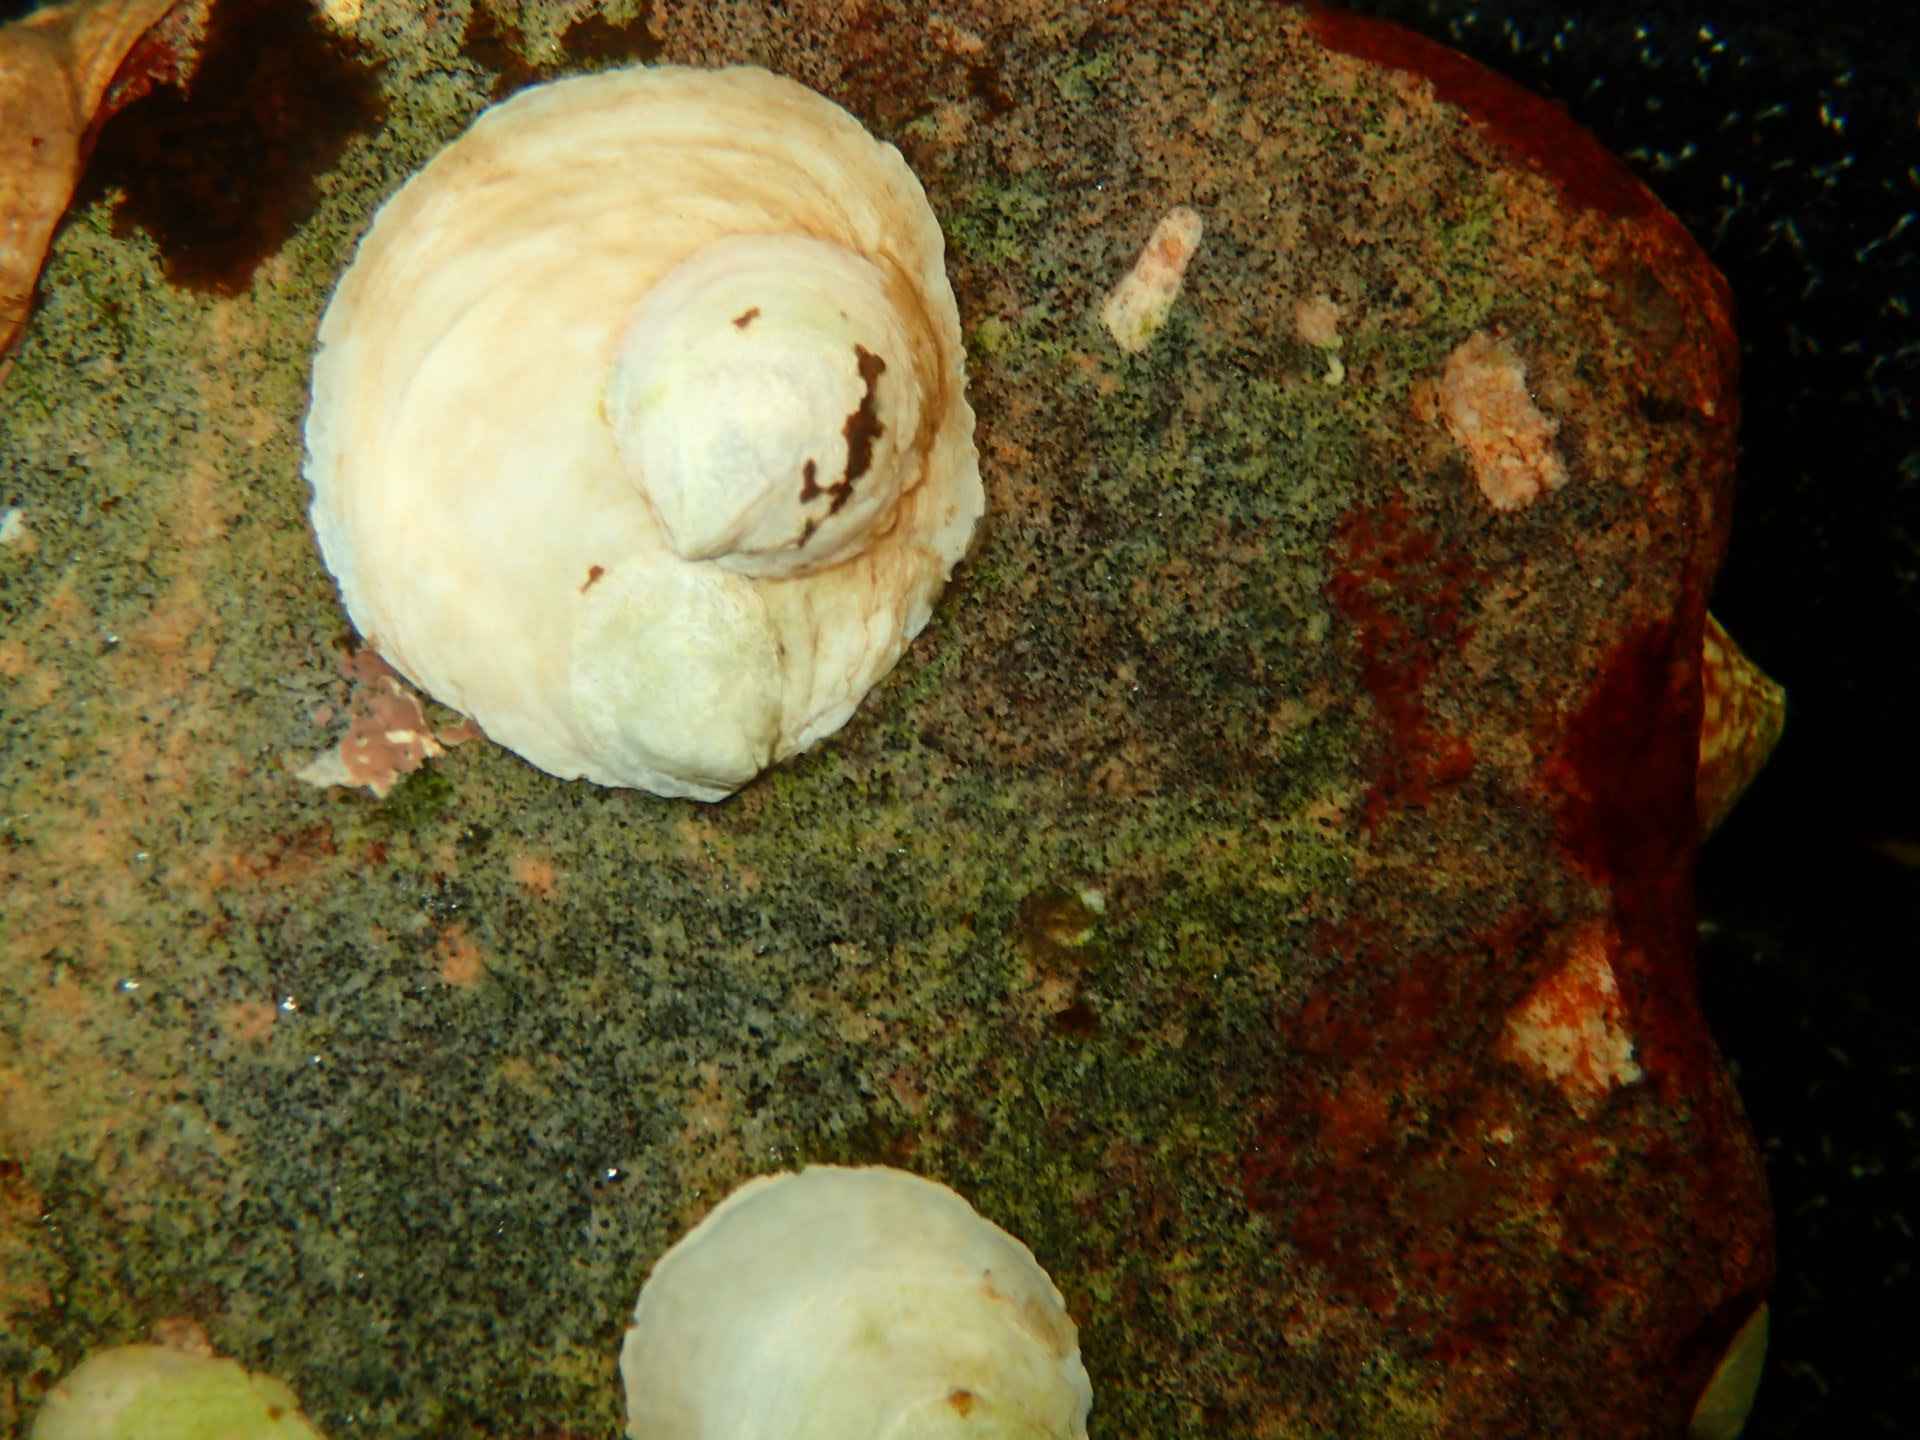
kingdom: Animalia
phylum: Mollusca
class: Gastropoda
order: Littorinimorpha
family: Calyptraeidae
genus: Crepidula
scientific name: Crepidula plana
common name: Eastern white slippersnail
